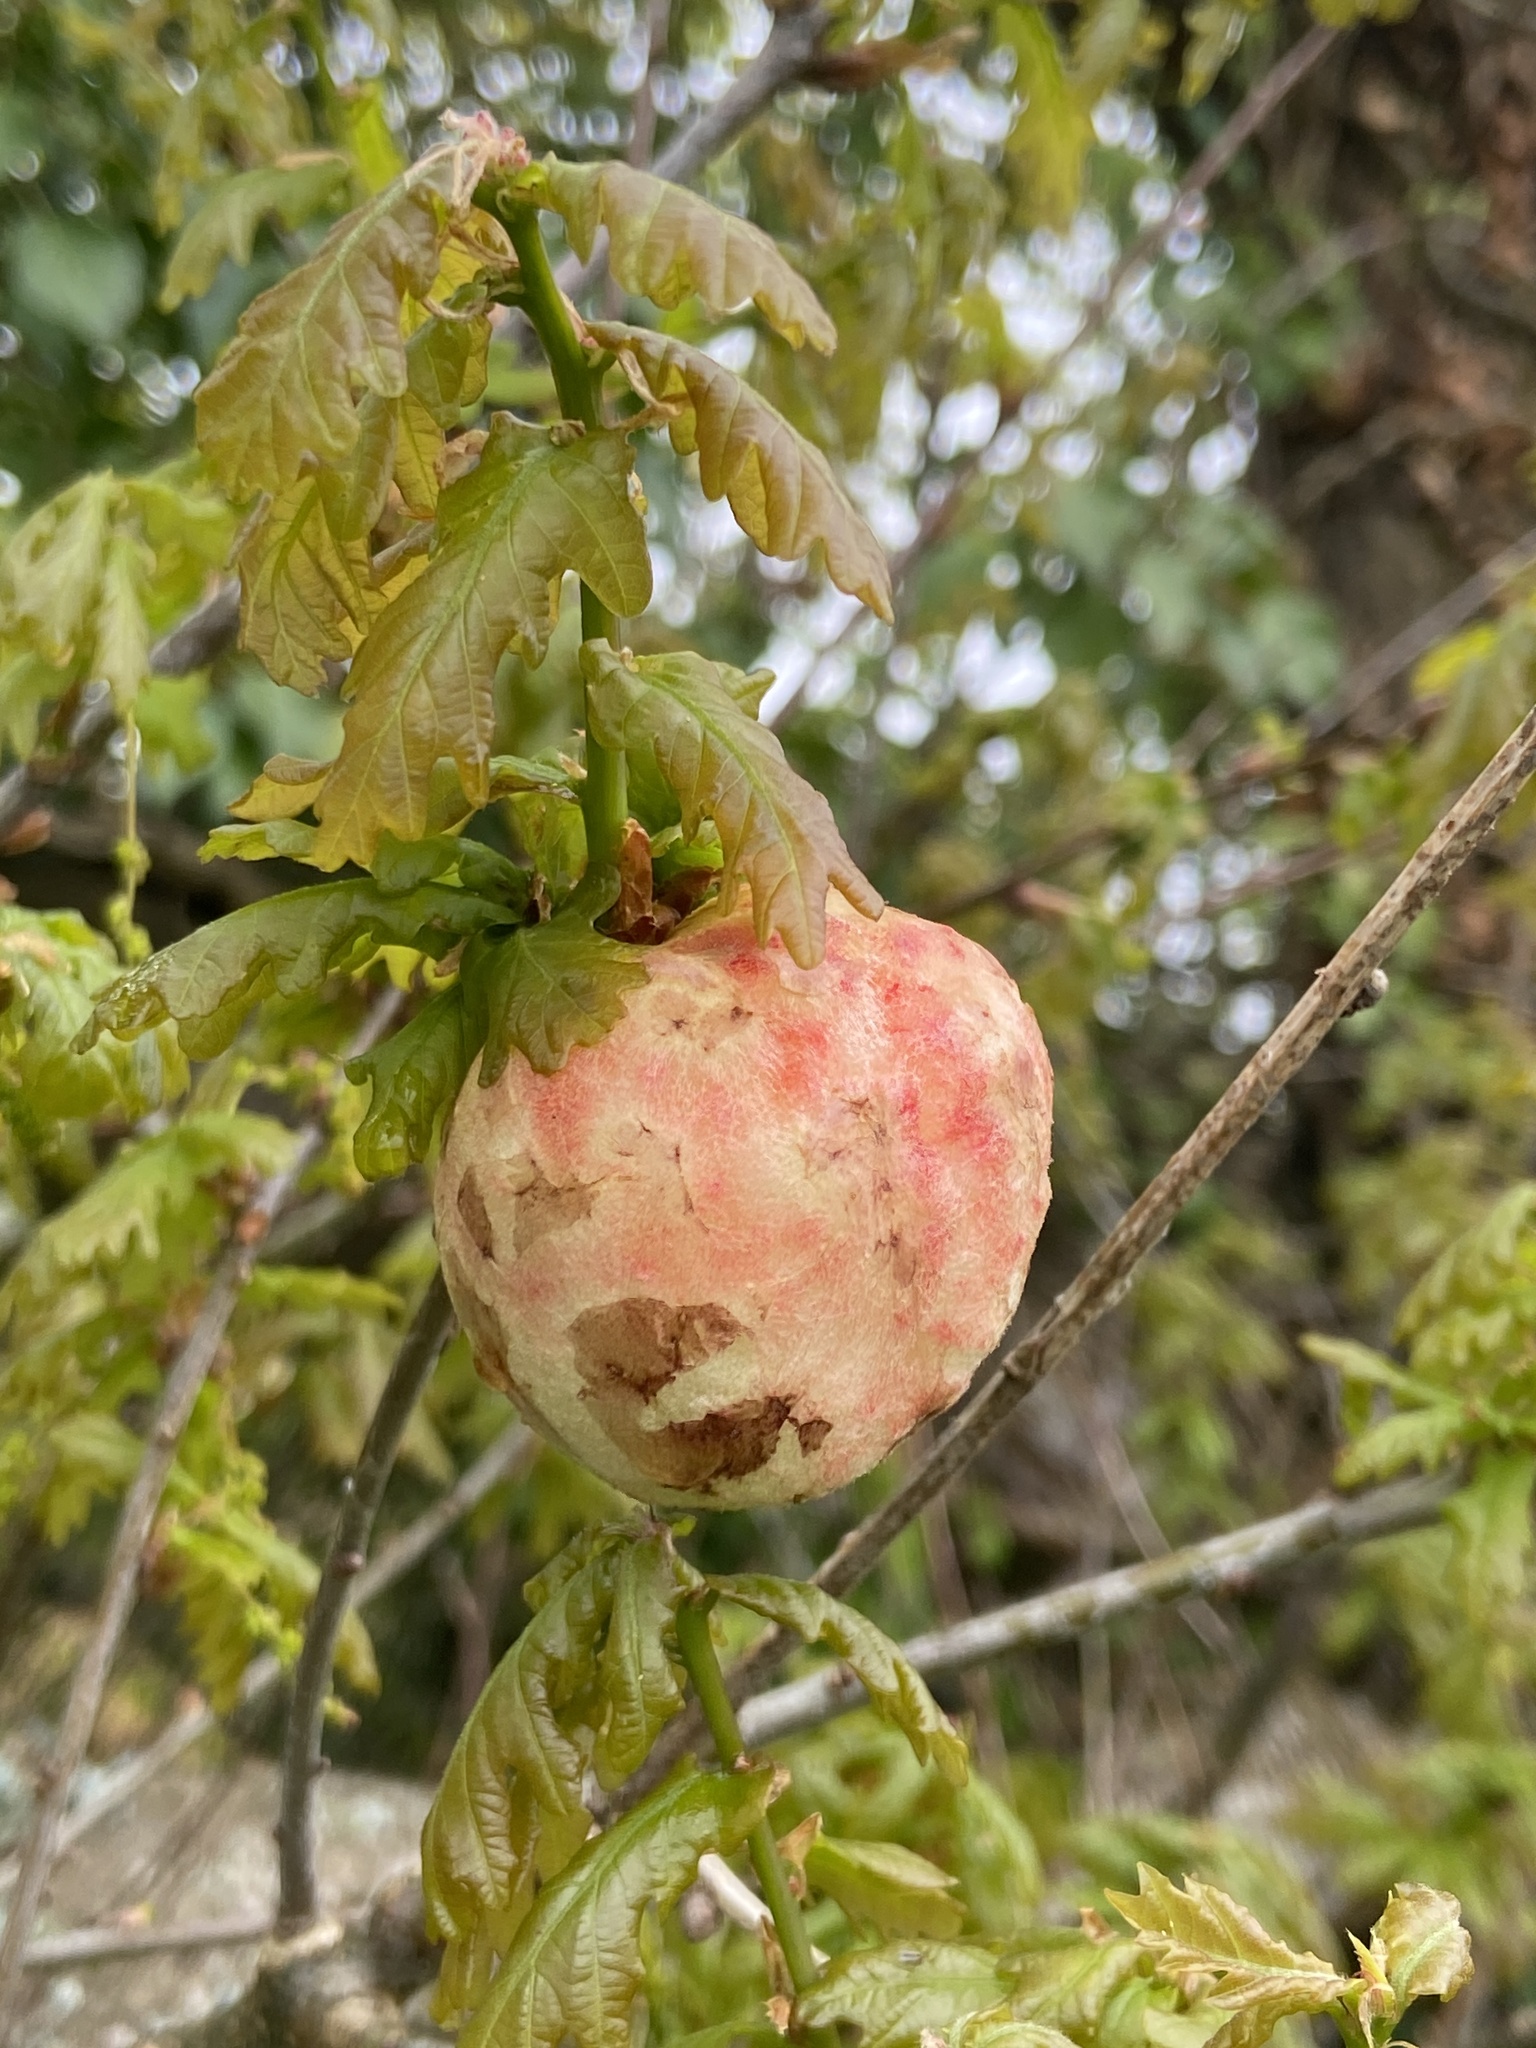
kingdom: Animalia
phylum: Arthropoda
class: Insecta
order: Hymenoptera
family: Cynipidae
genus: Biorhiza
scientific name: Biorhiza pallida
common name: Oak apple
